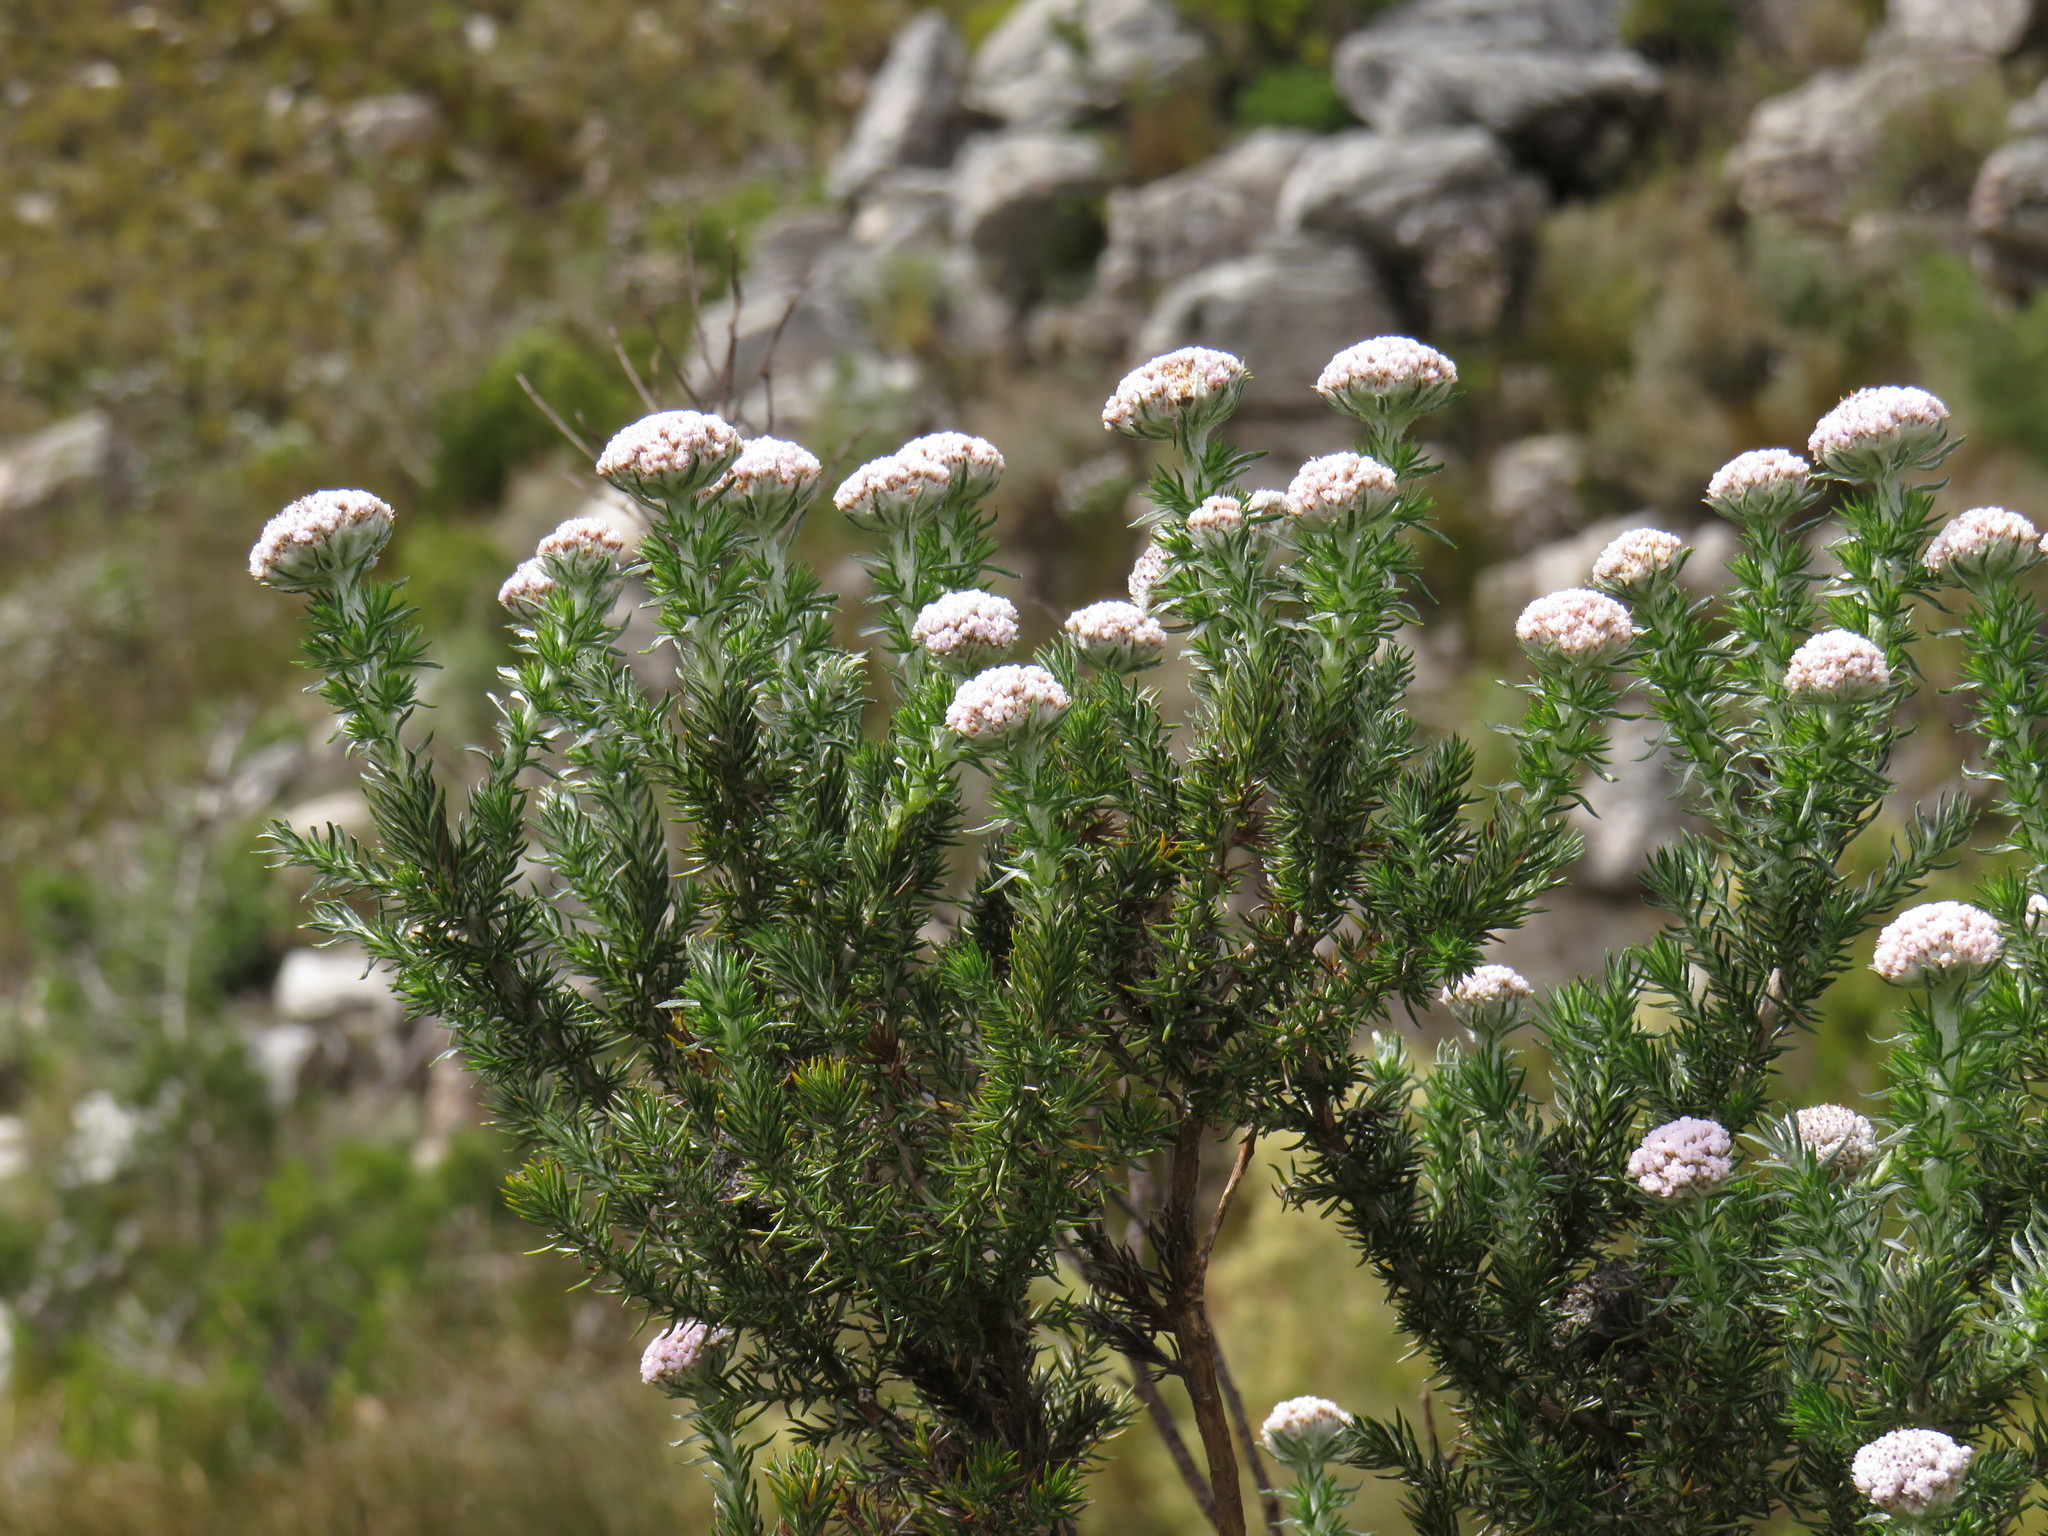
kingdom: Plantae
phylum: Tracheophyta
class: Magnoliopsida
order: Asterales
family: Asteraceae
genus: Metalasia
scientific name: Metalasia muraltiifolia
